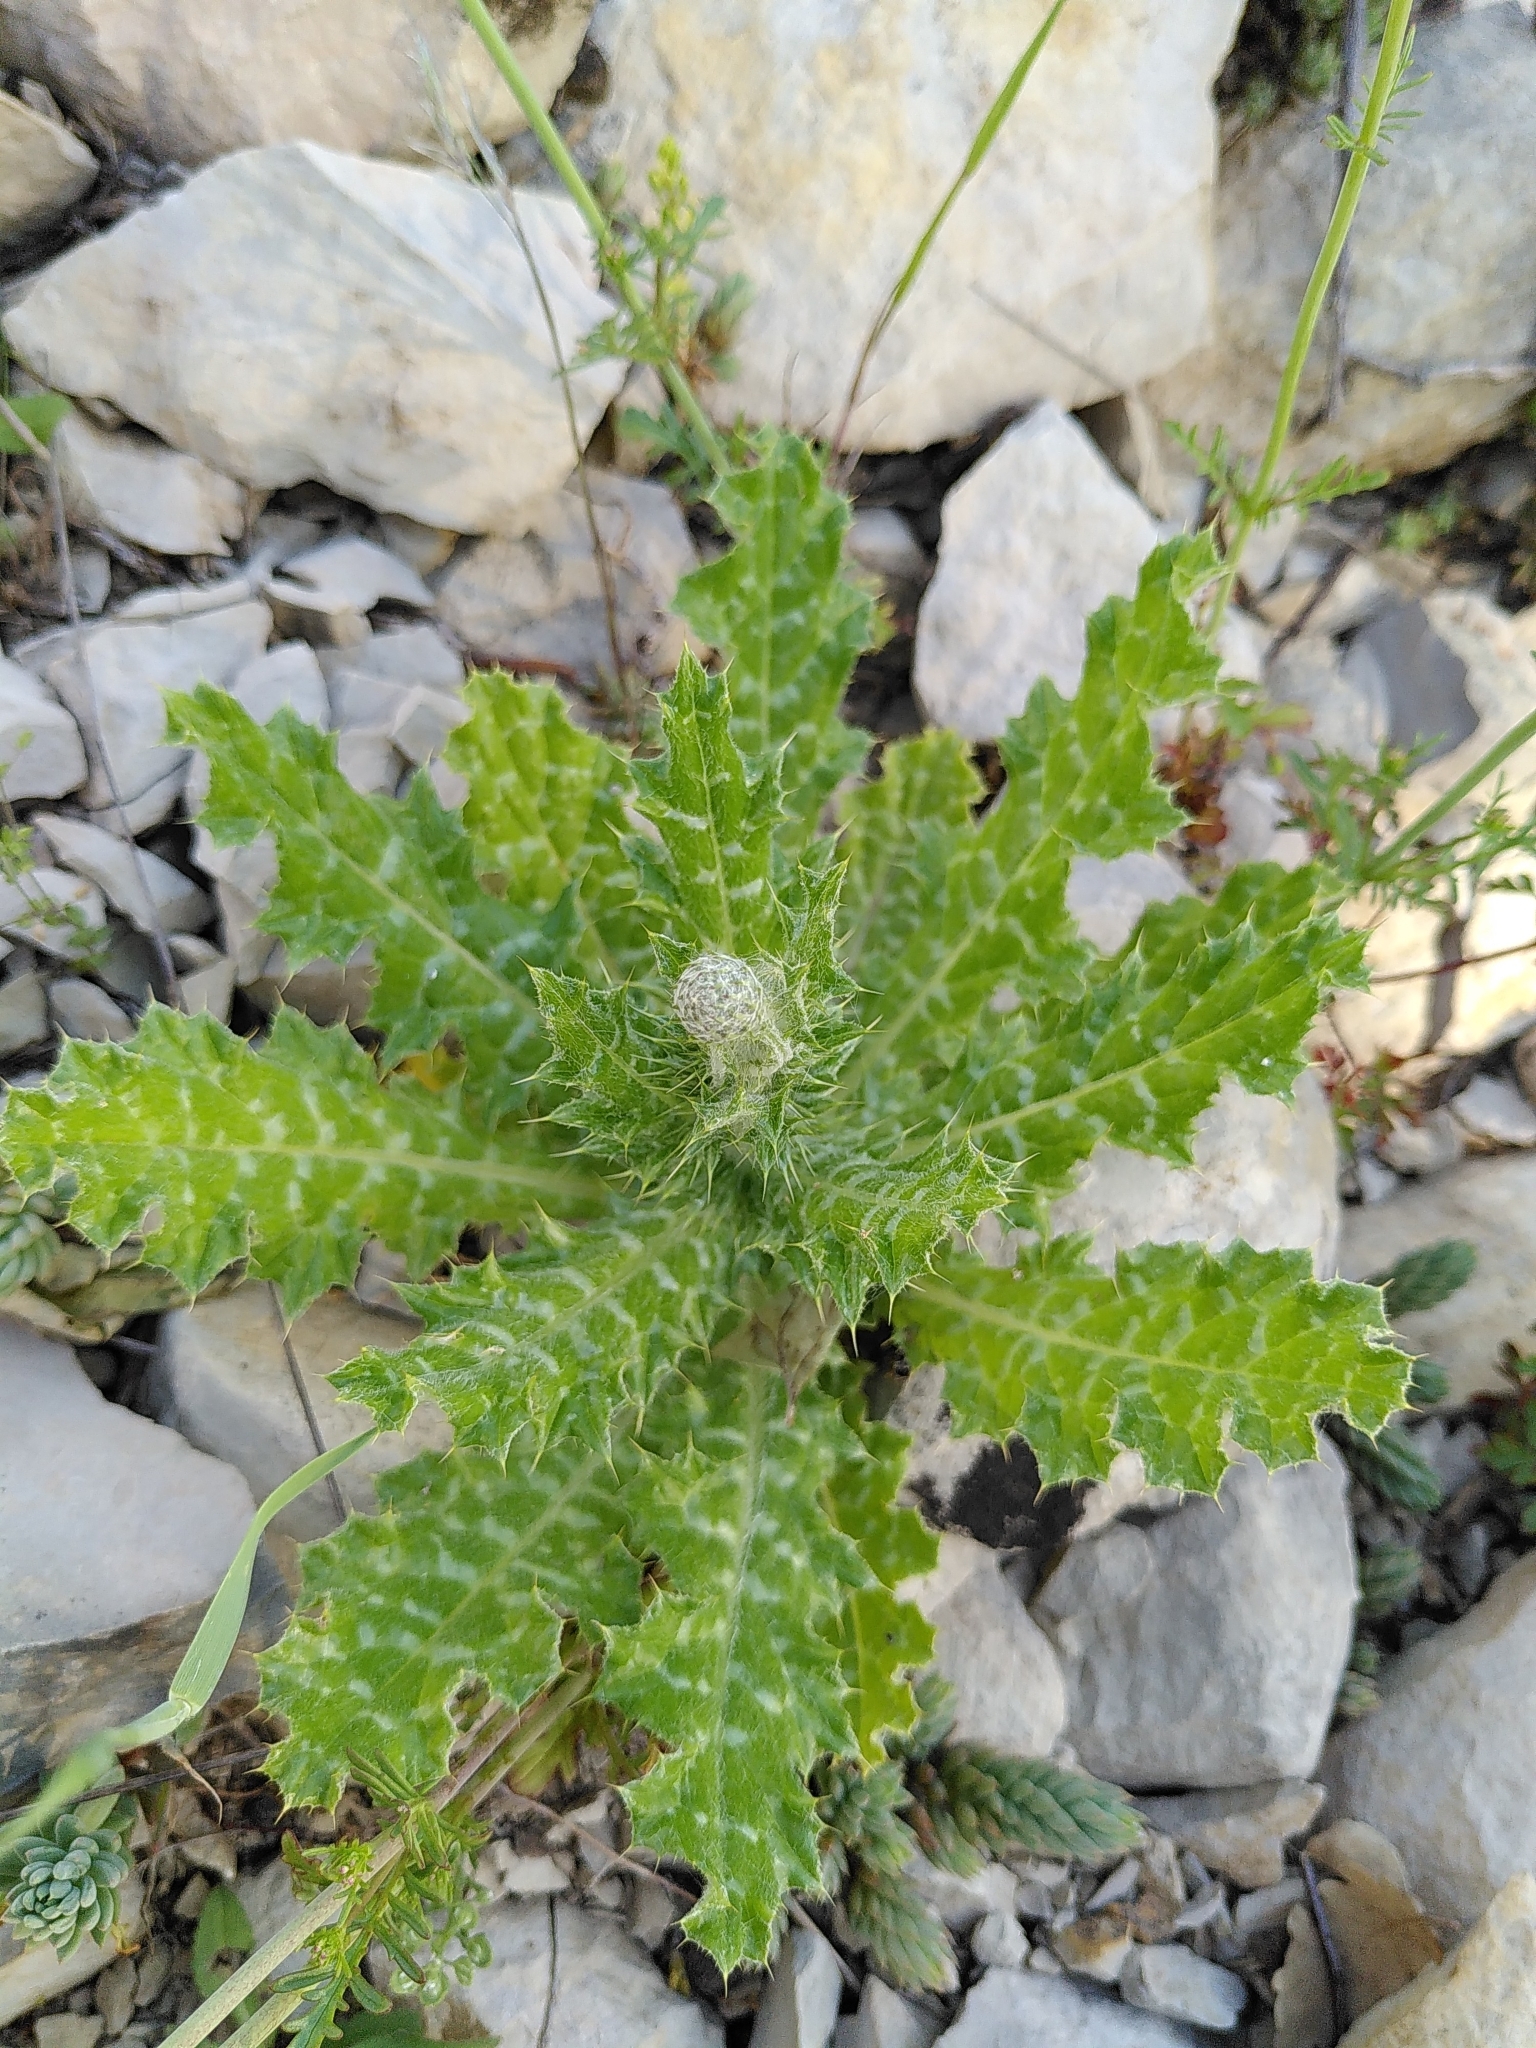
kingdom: Plantae
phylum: Tracheophyta
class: Magnoliopsida
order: Asterales
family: Asteraceae
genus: Tyrimnus
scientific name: Tyrimnus leucographus
